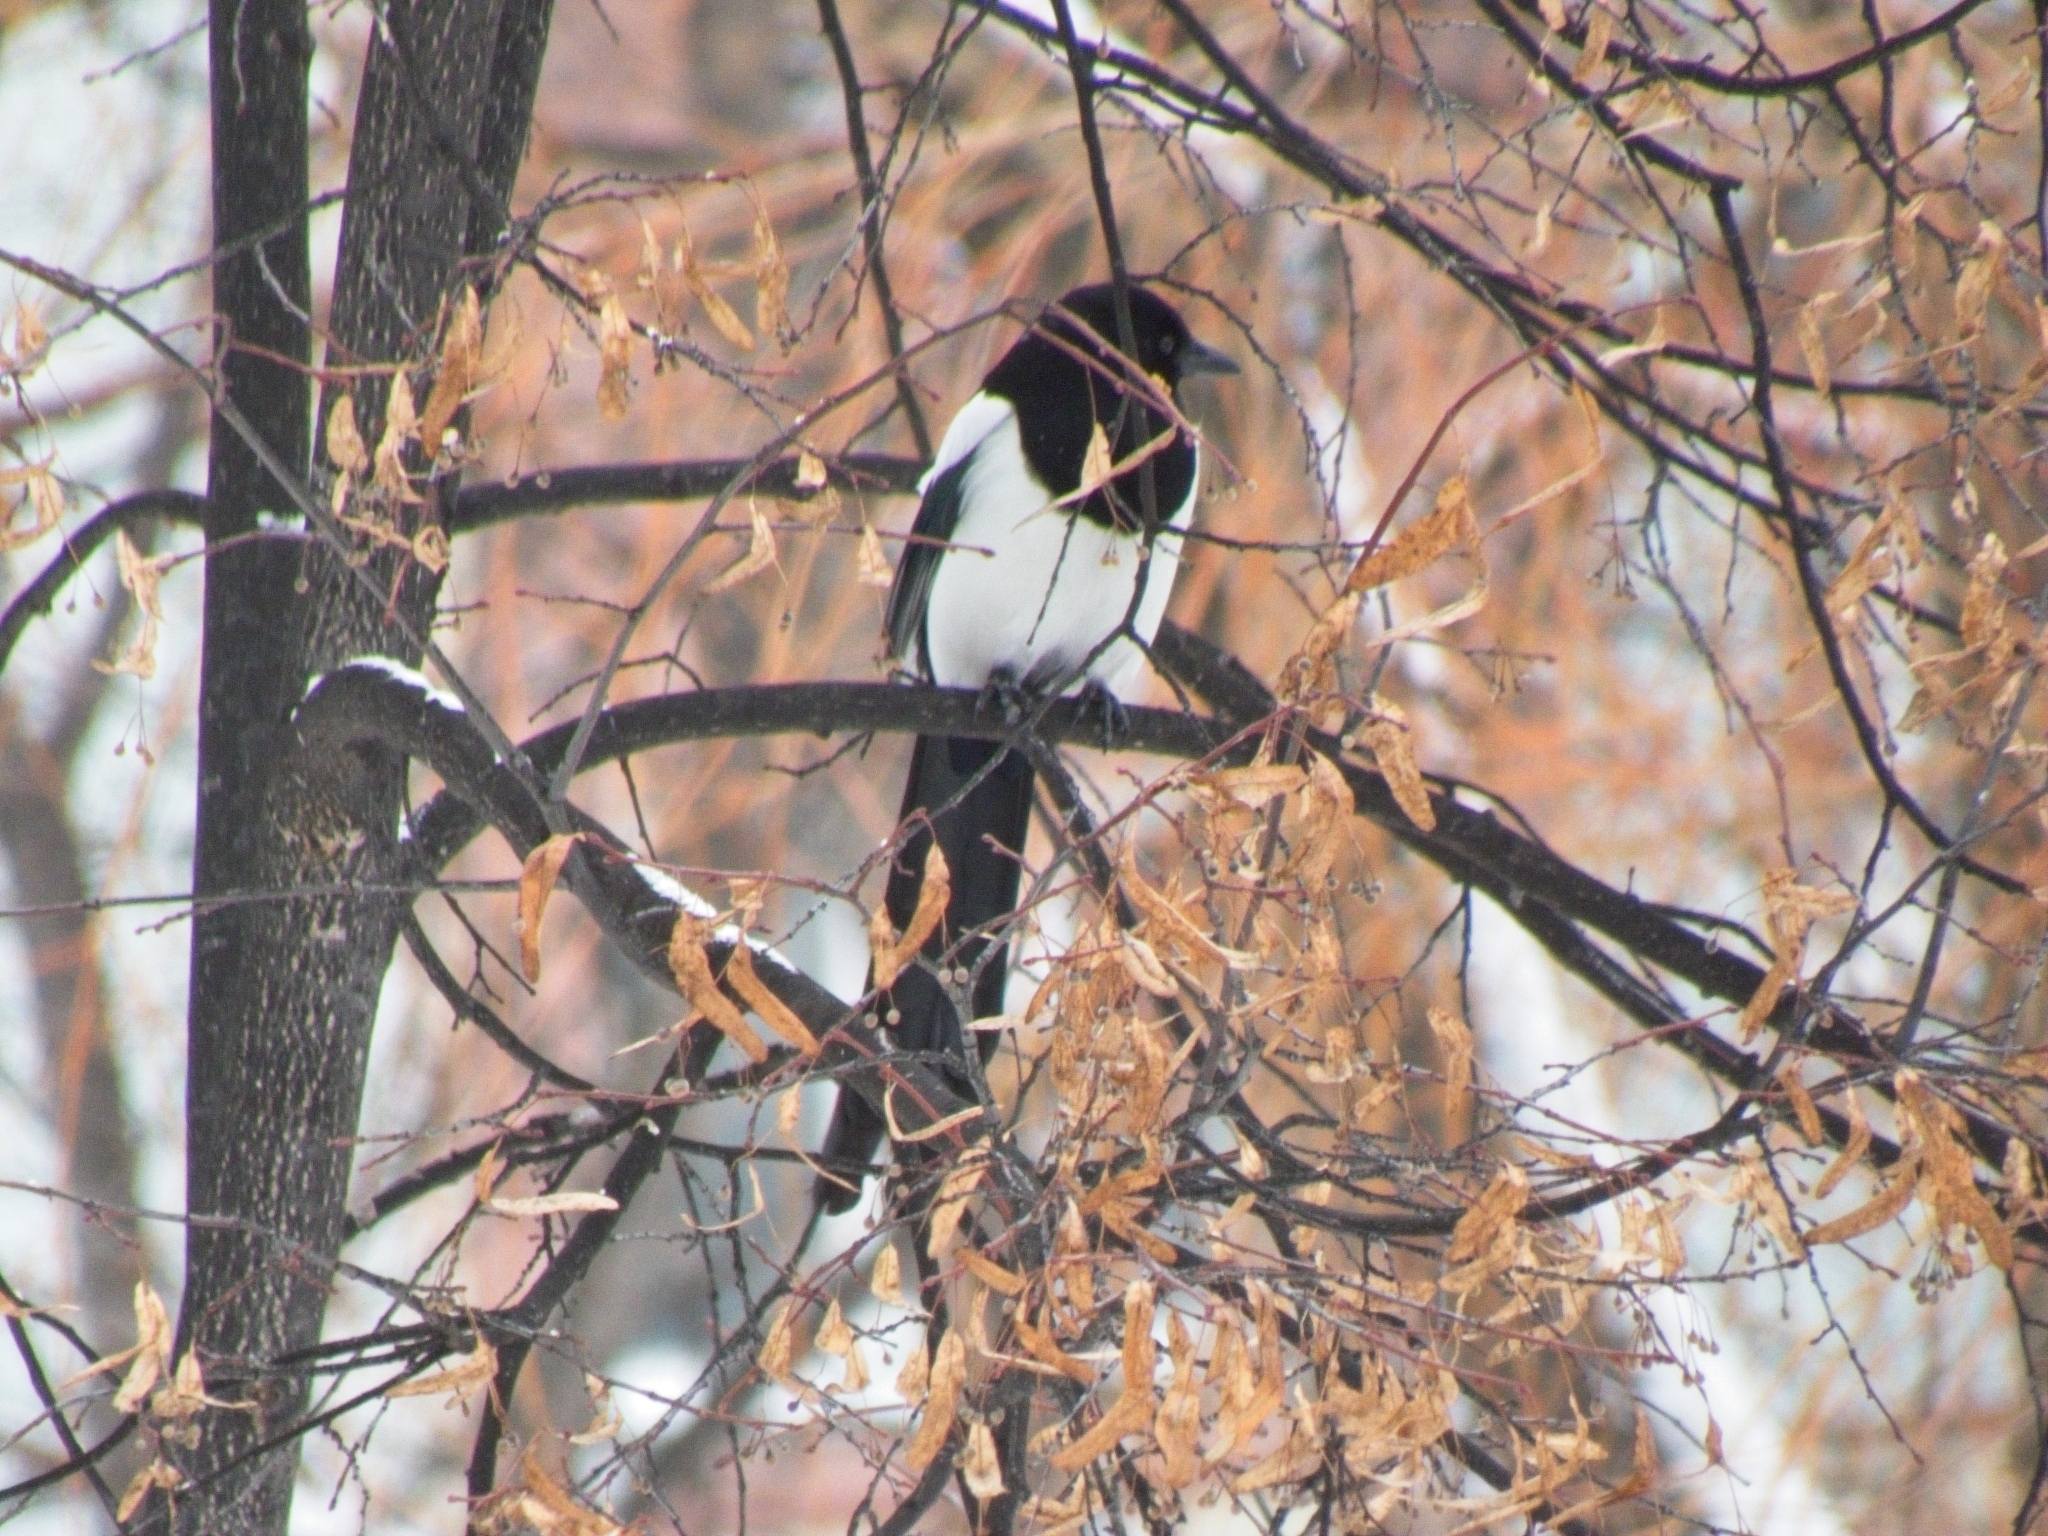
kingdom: Animalia
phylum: Chordata
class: Aves
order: Passeriformes
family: Corvidae
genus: Pica
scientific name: Pica pica
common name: Eurasian magpie
